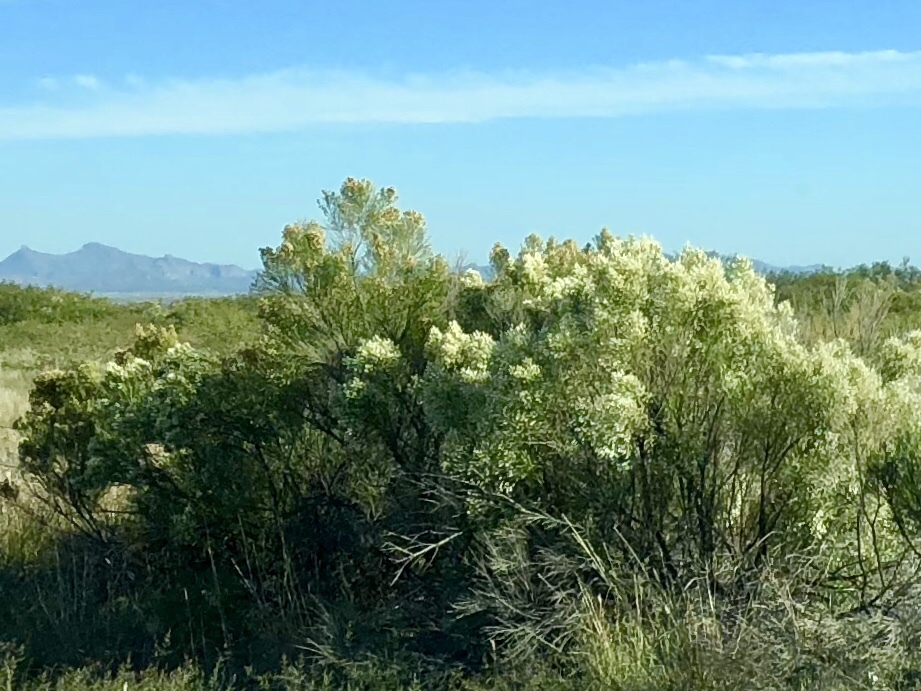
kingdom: Plantae
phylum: Tracheophyta
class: Magnoliopsida
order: Asterales
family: Asteraceae
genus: Baccharis
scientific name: Baccharis sarothroides
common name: Desert-broom
